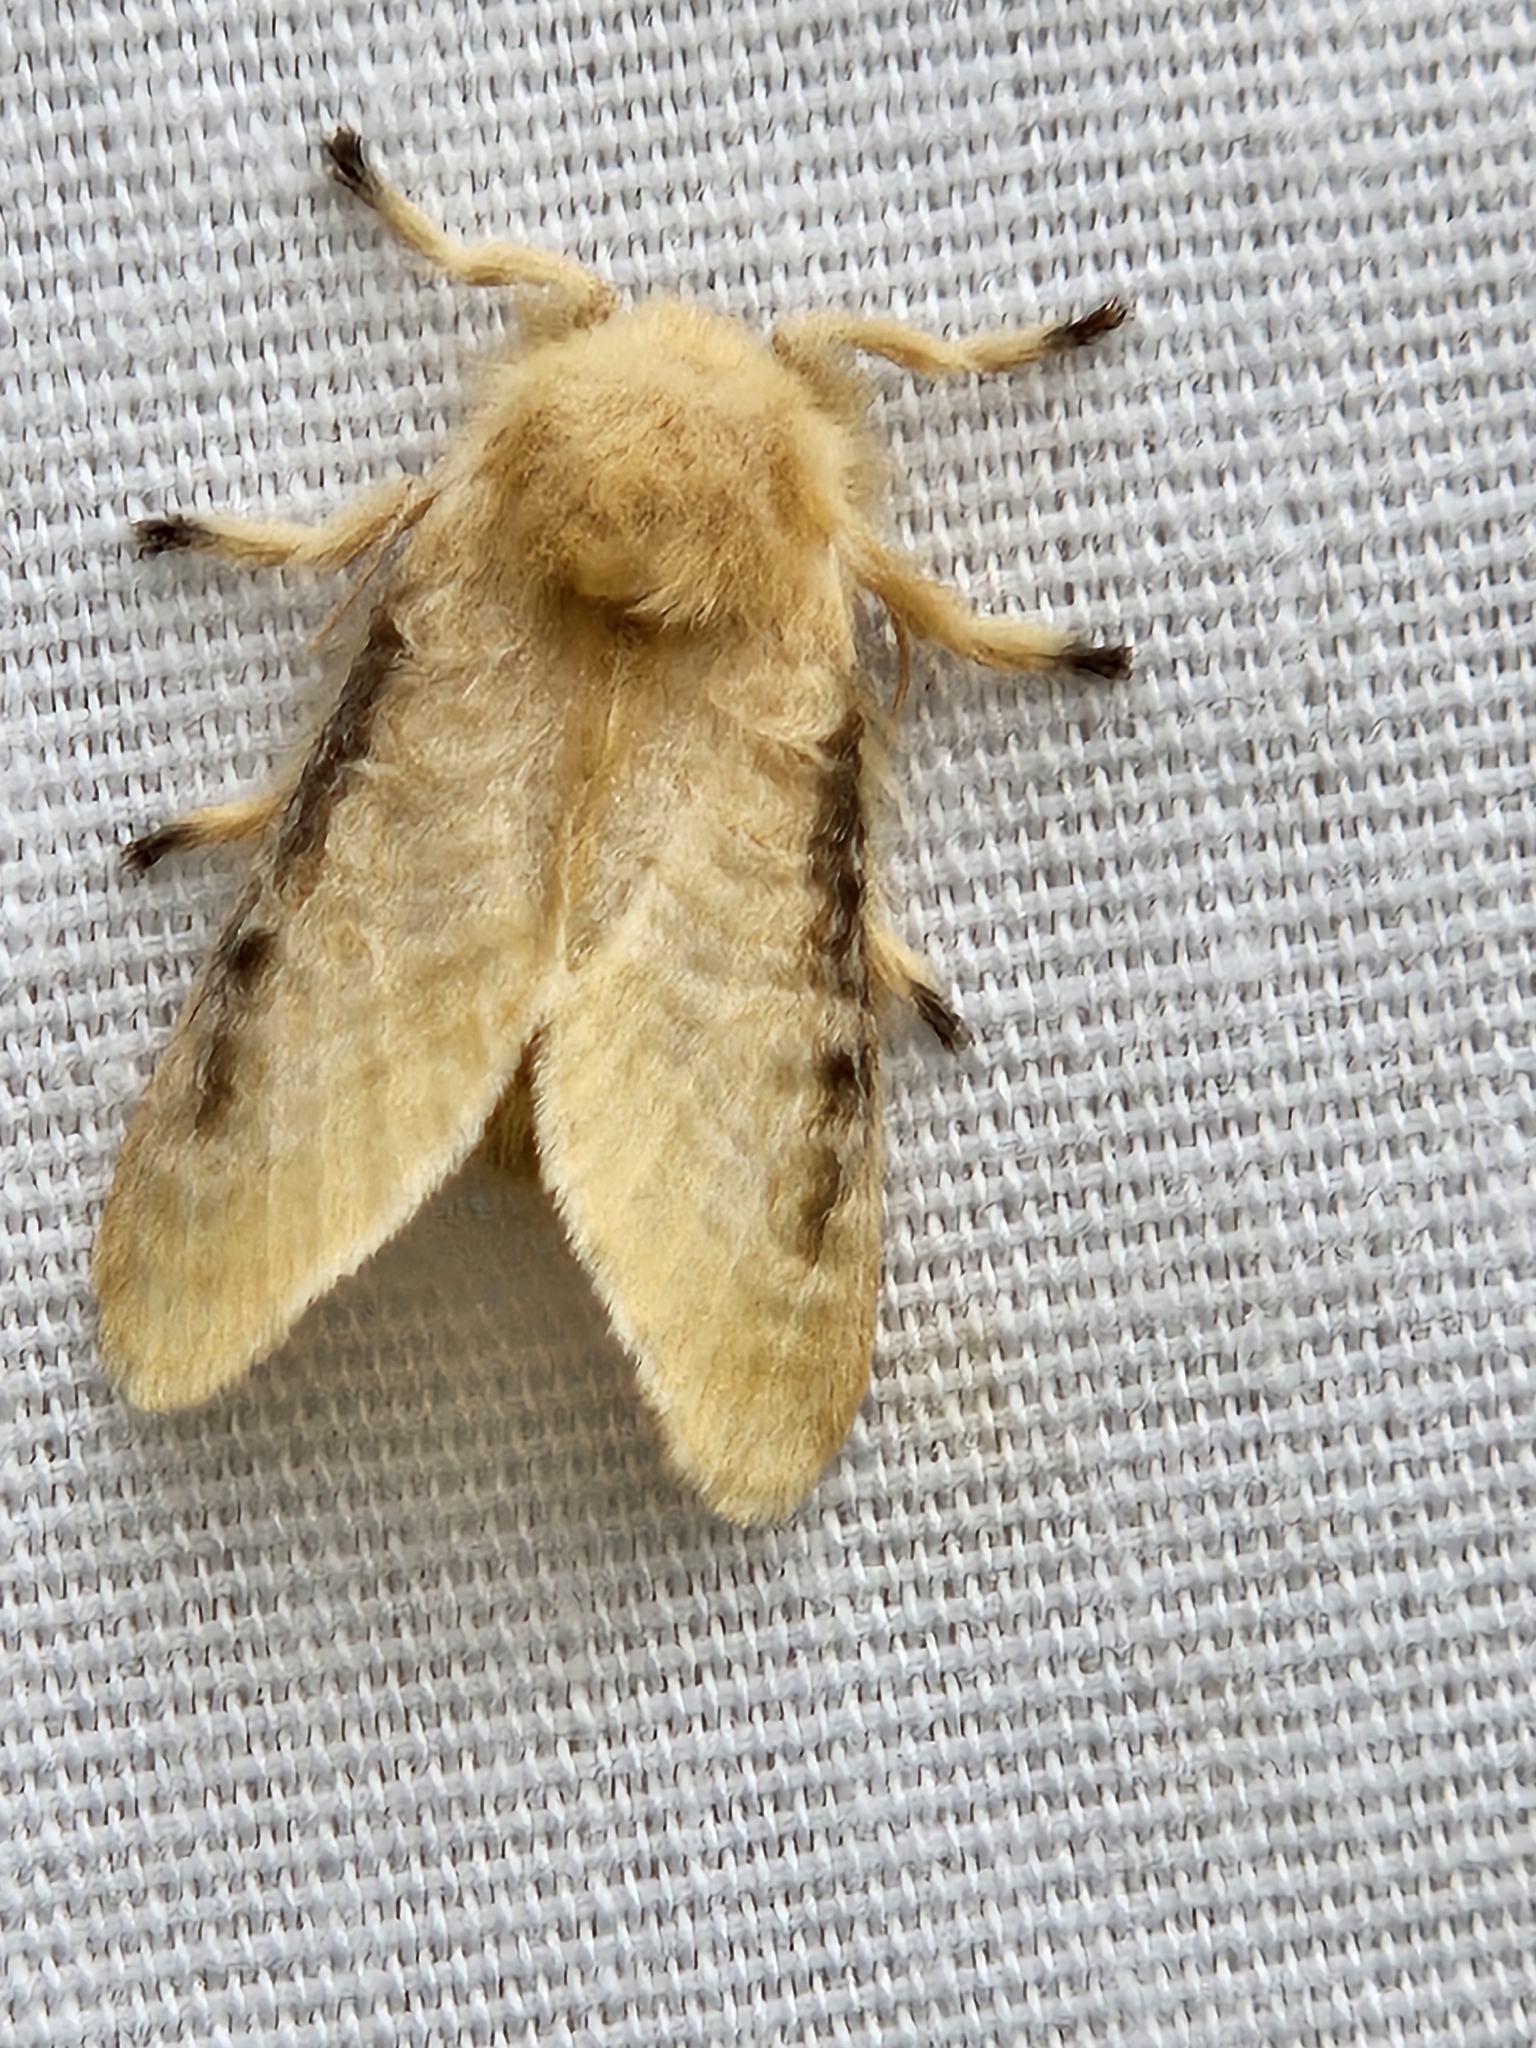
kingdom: Animalia
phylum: Arthropoda
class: Insecta
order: Lepidoptera
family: Megalopygidae
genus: Megalopyge
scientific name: Megalopyge crispata
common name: Black-waved flannel moth
